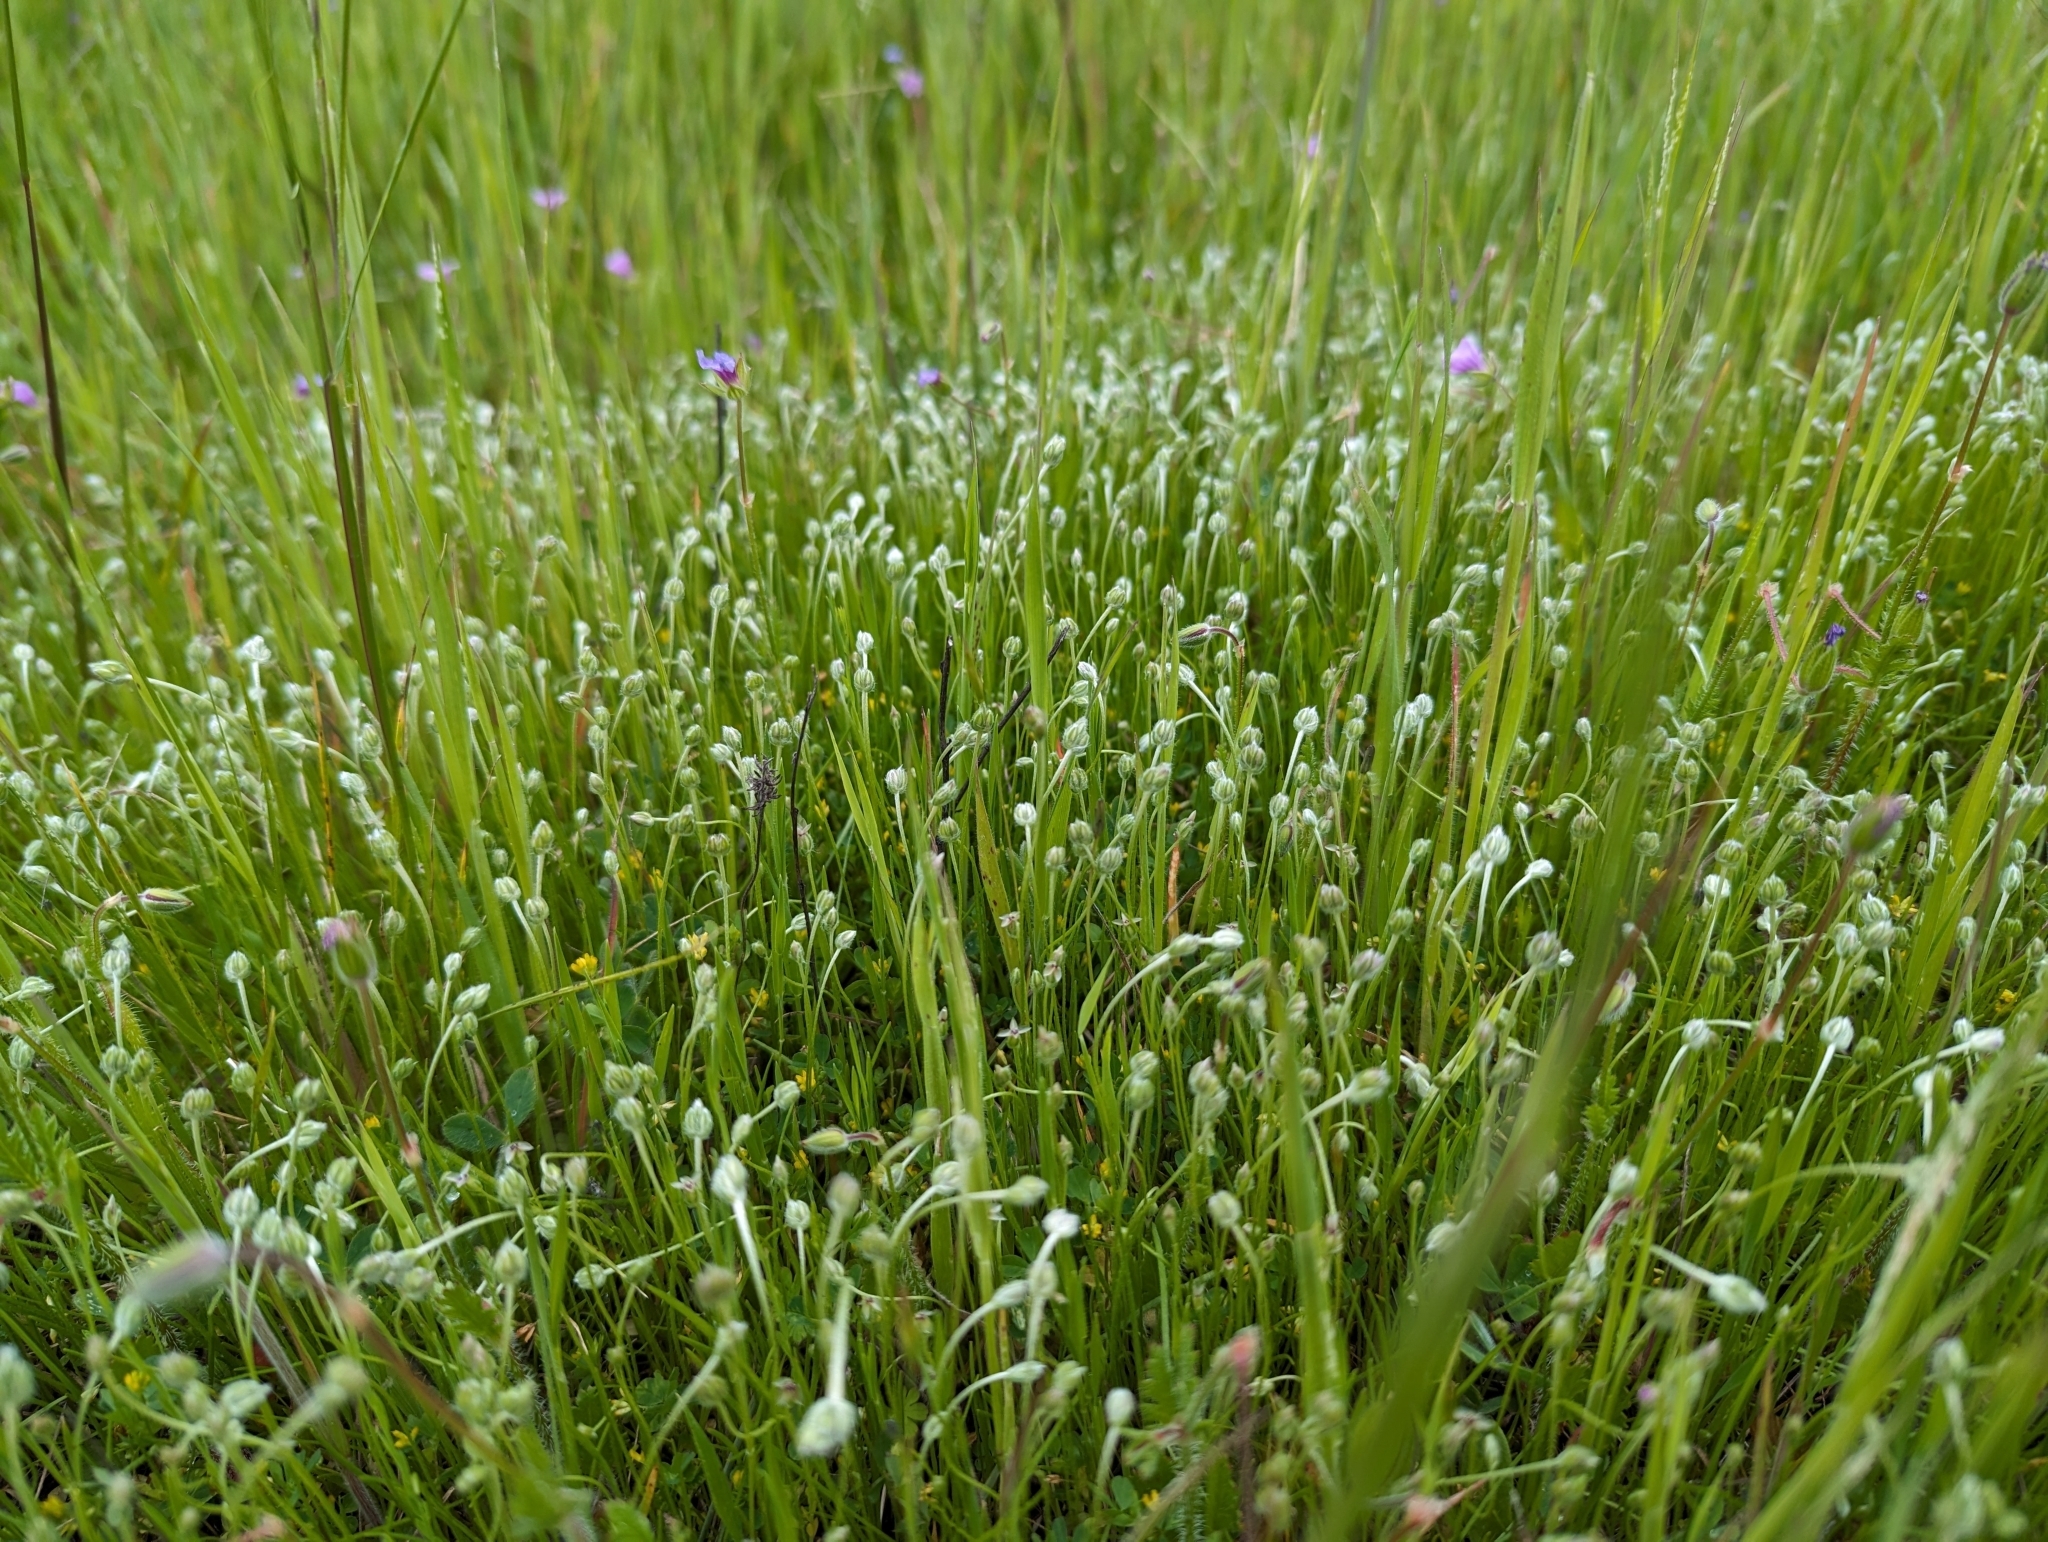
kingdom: Plantae
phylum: Tracheophyta
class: Magnoliopsida
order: Lamiales
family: Plantaginaceae
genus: Plantago
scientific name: Plantago erecta
